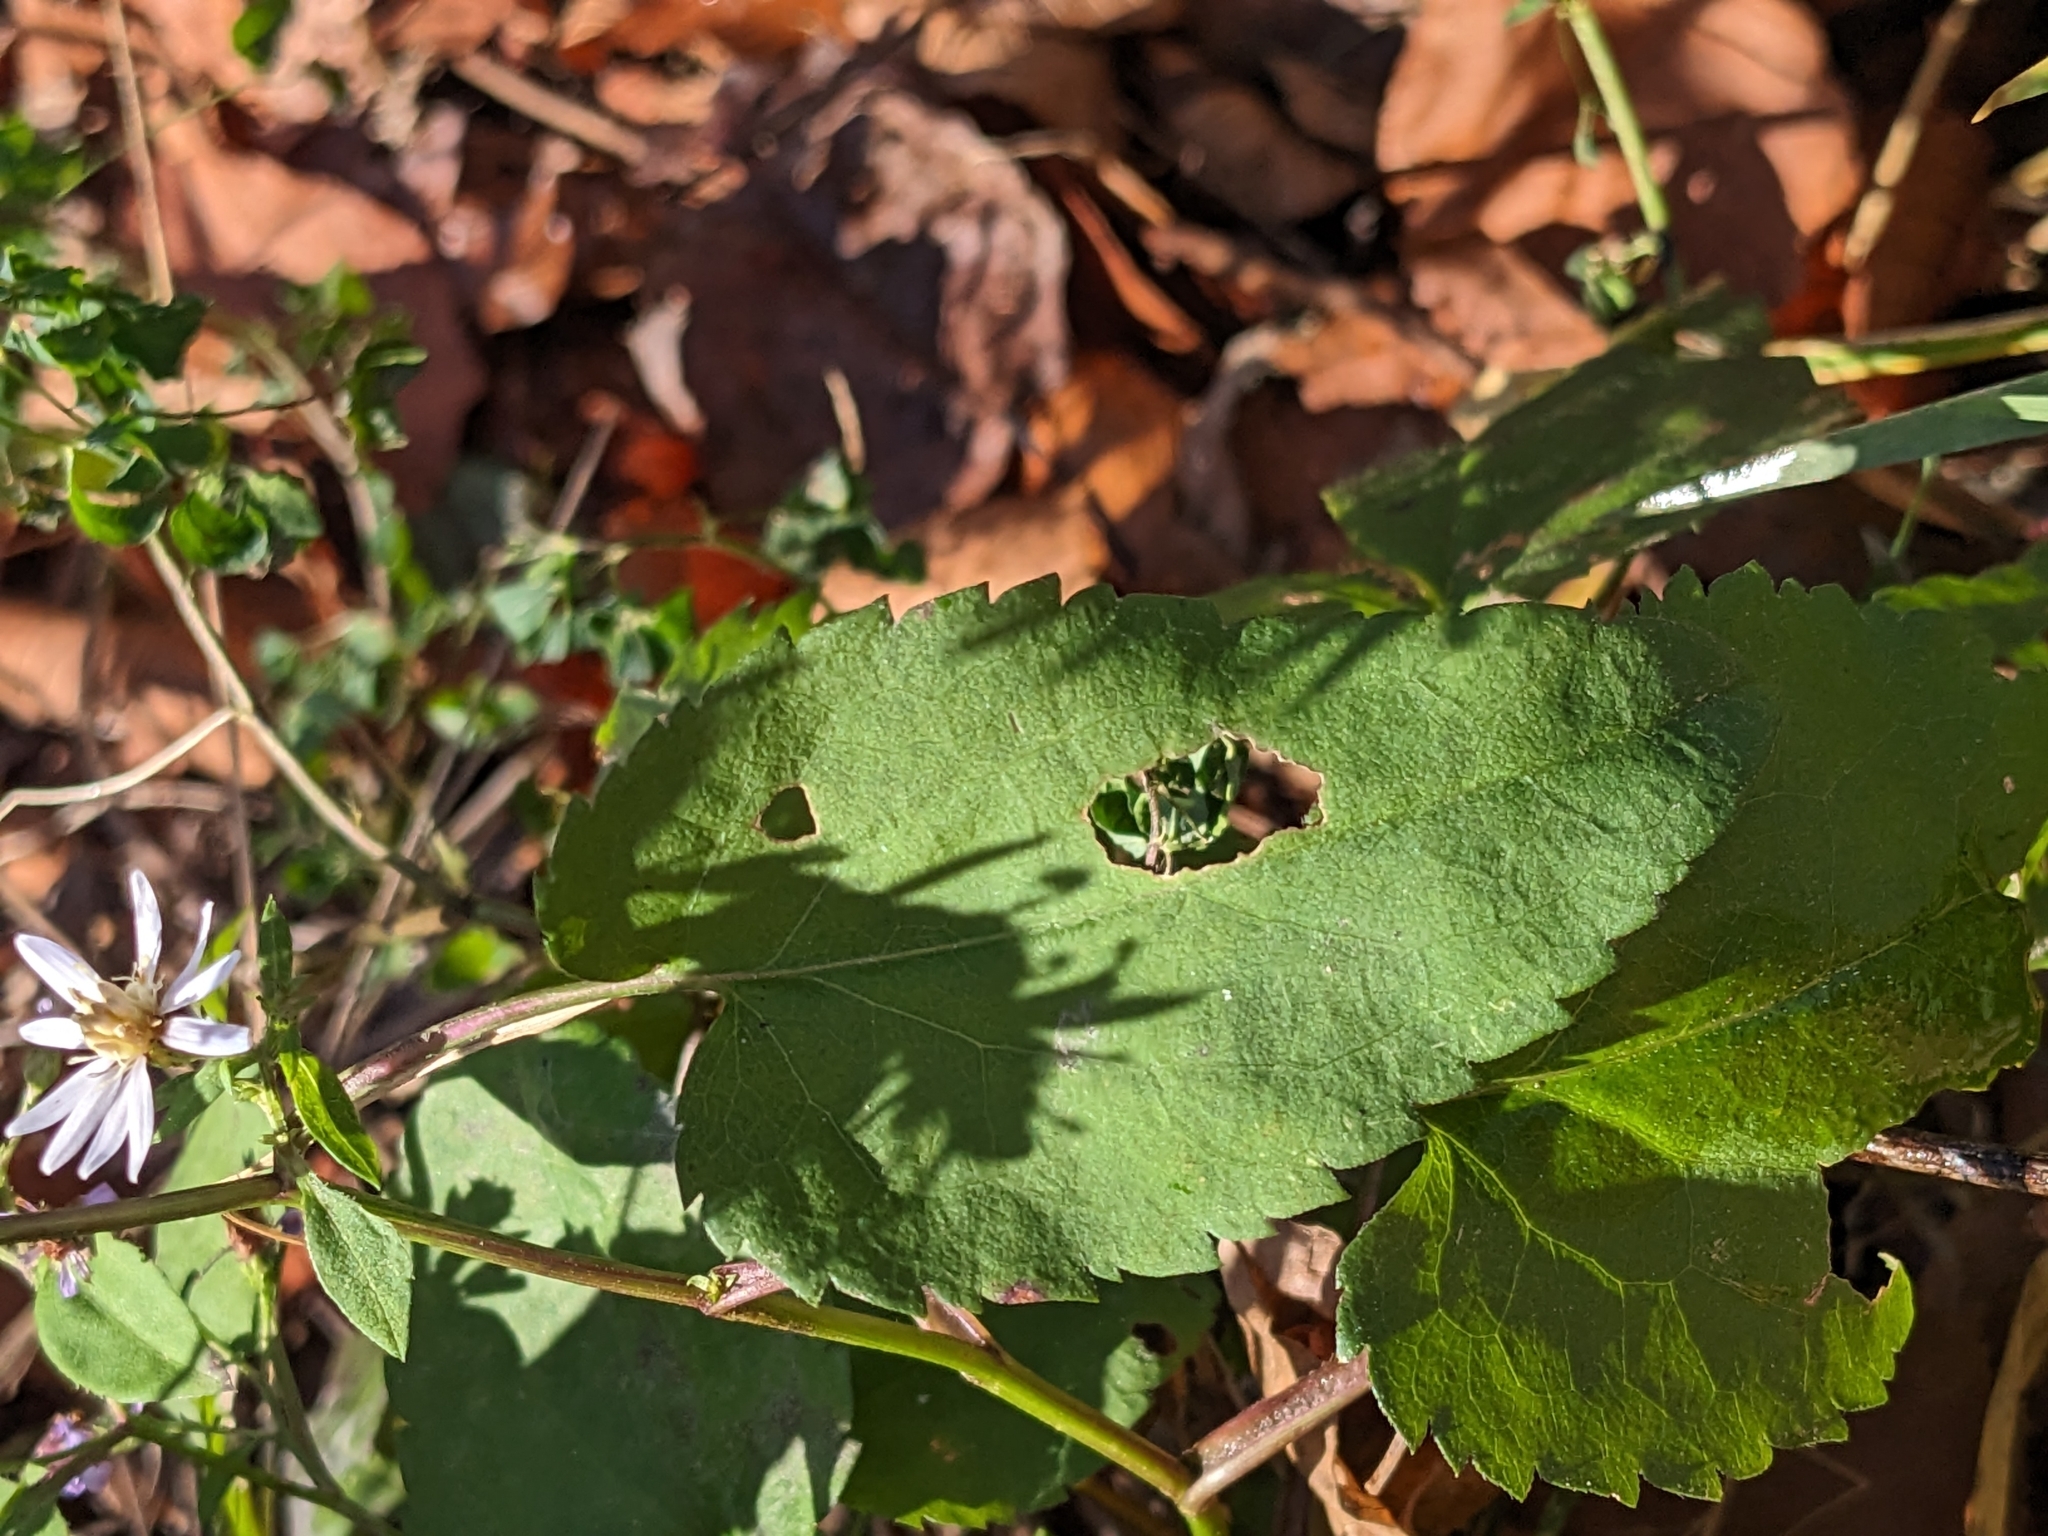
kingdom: Plantae
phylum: Tracheophyta
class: Magnoliopsida
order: Asterales
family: Asteraceae
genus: Symphyotrichum
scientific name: Symphyotrichum cordifolium
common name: Beeweed
